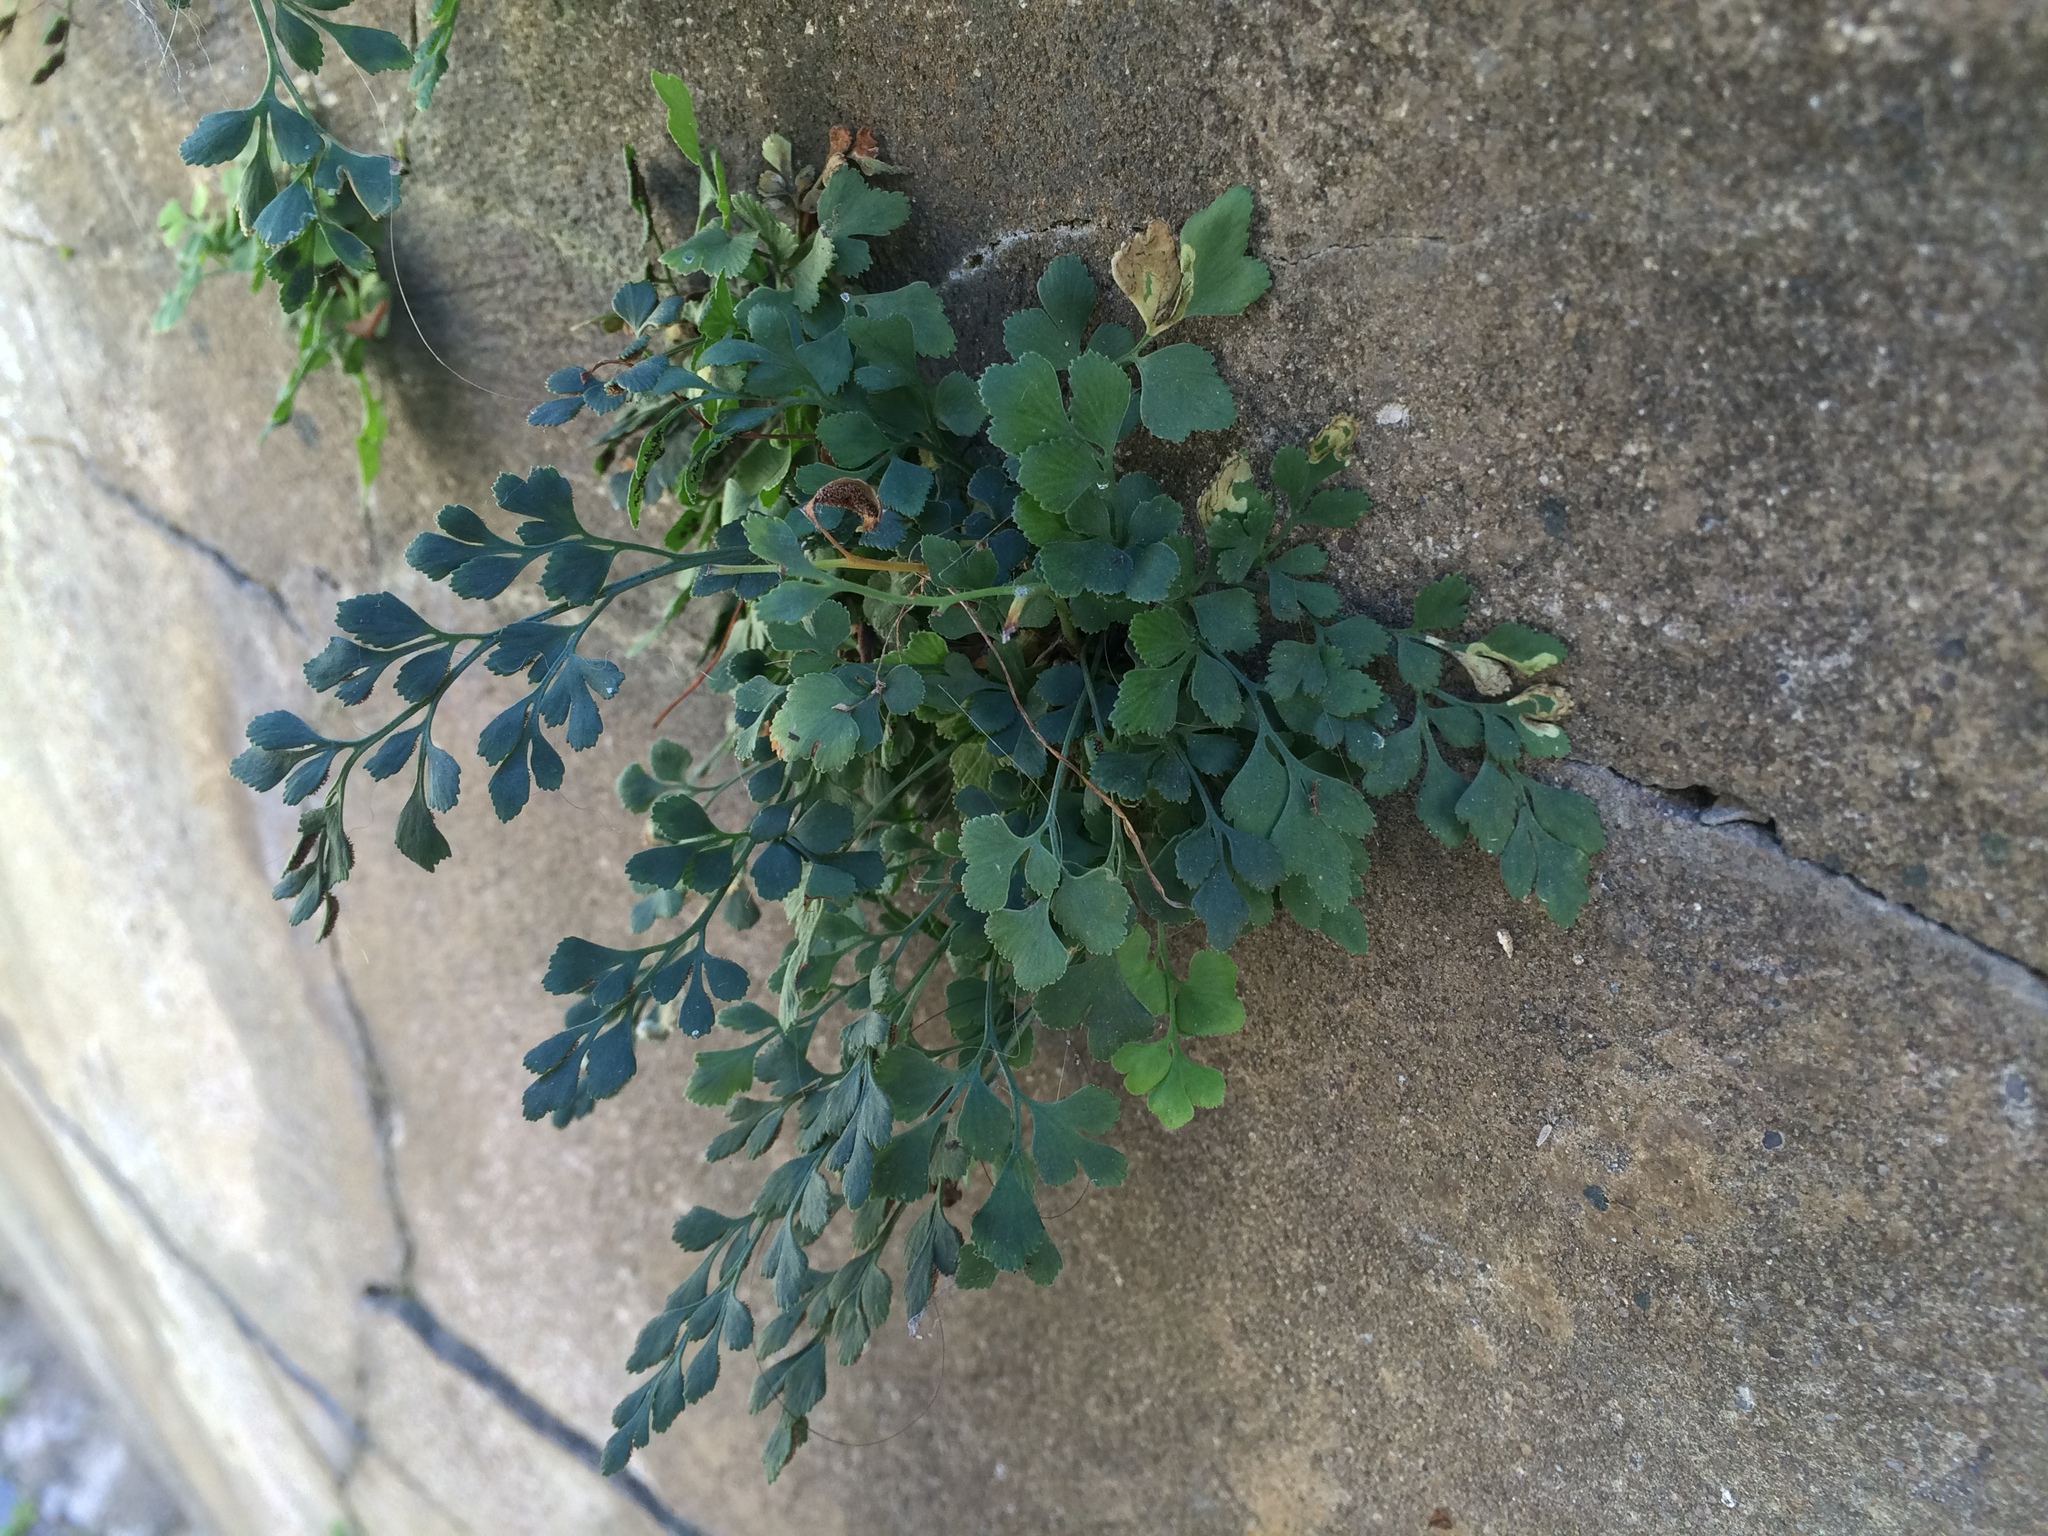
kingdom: Plantae
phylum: Tracheophyta
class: Polypodiopsida
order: Polypodiales
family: Aspleniaceae
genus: Asplenium
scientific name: Asplenium ruta-muraria
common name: Wall-rue
